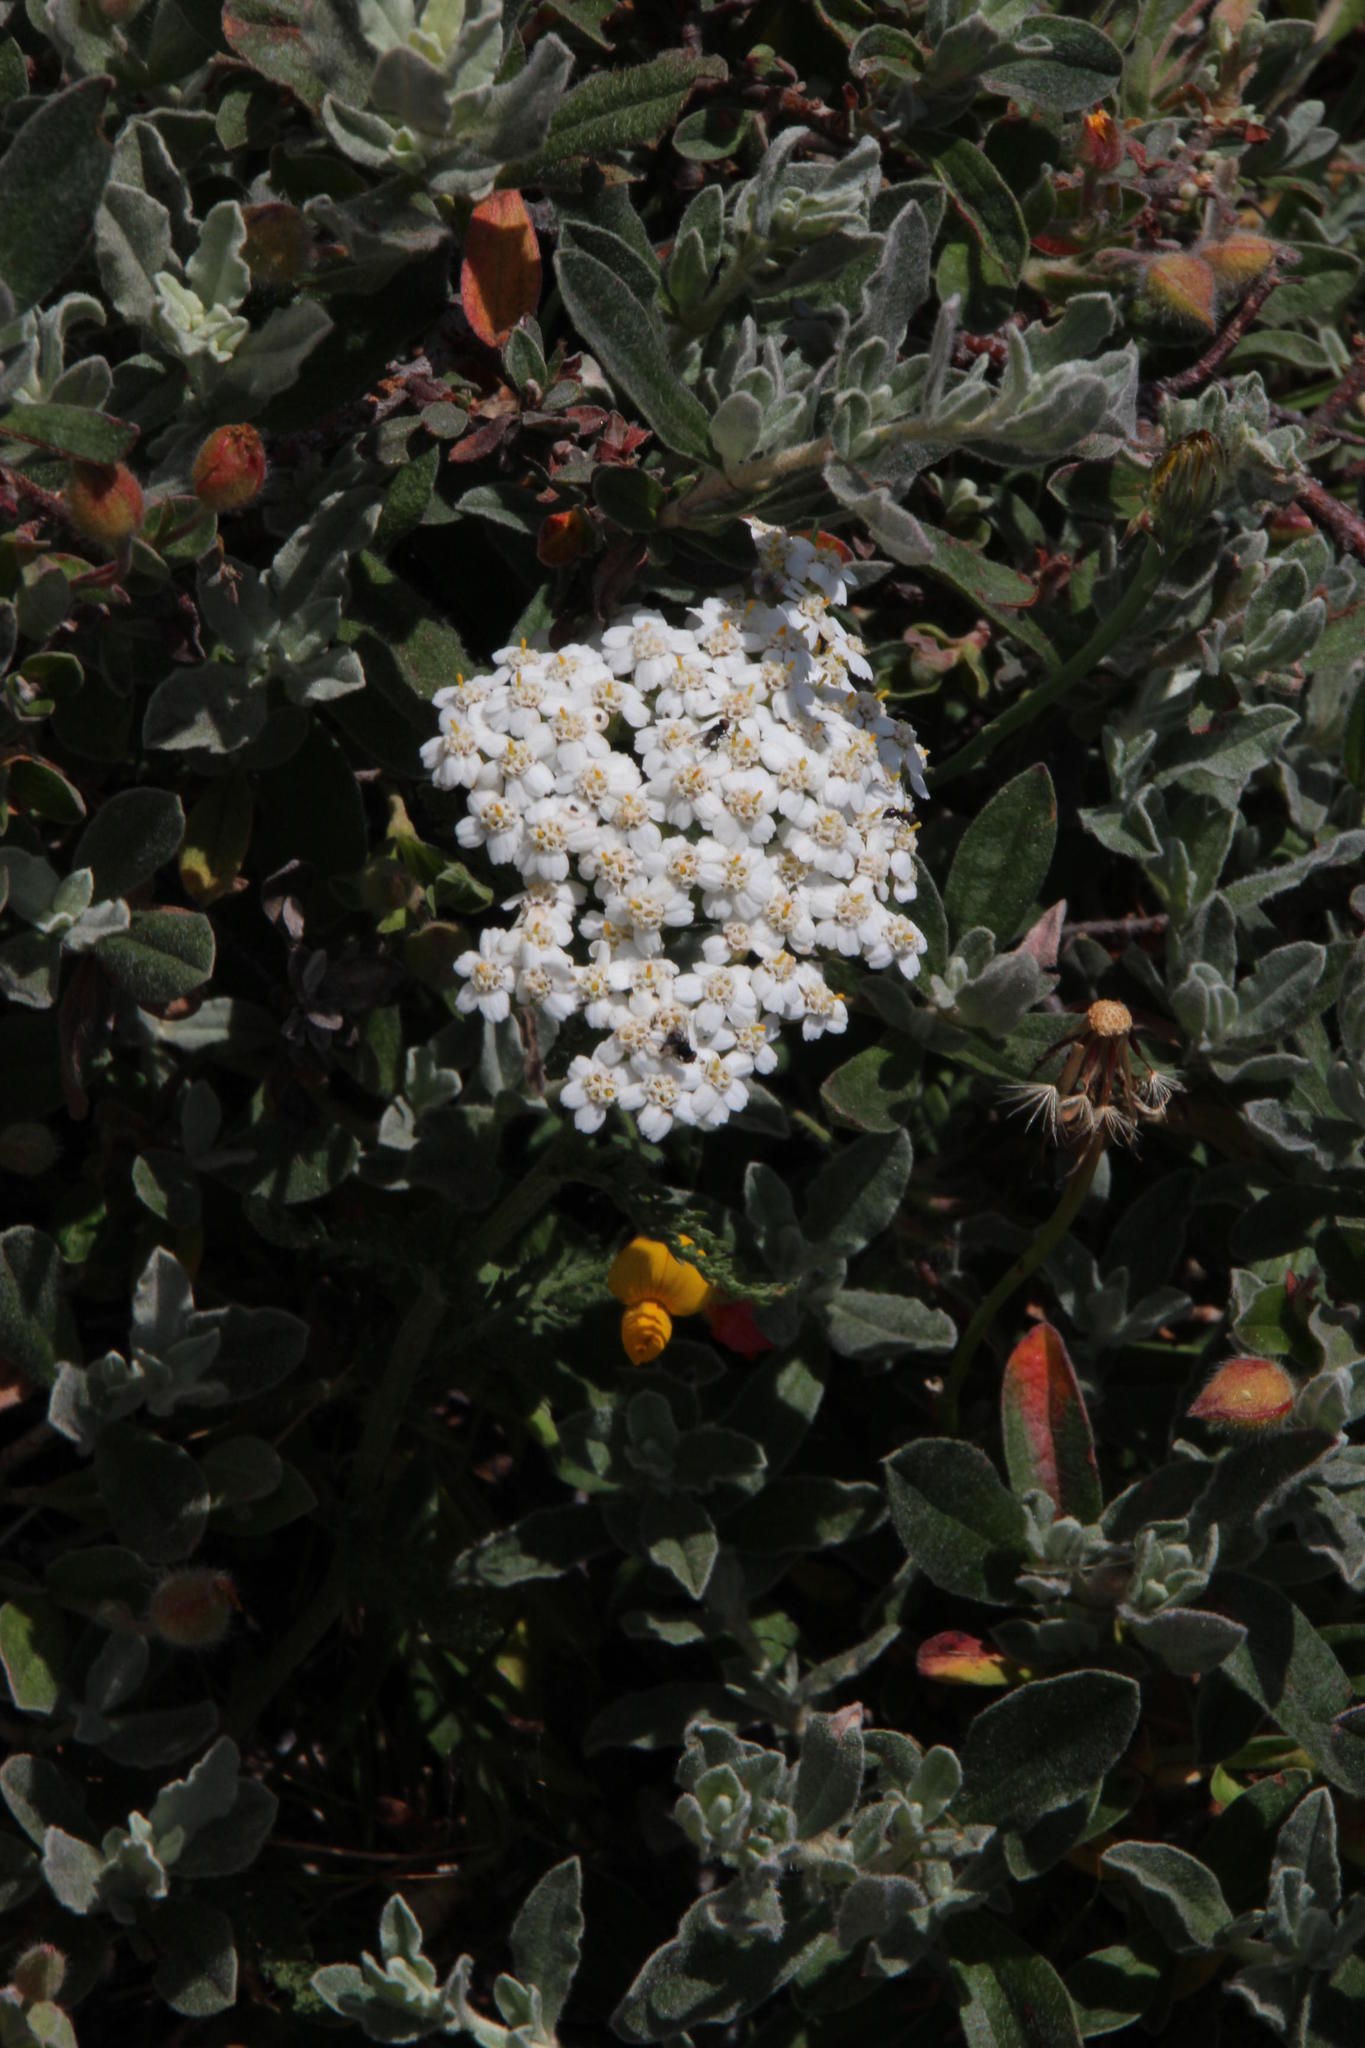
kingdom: Plantae
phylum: Tracheophyta
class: Magnoliopsida
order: Asterales
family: Asteraceae
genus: Achillea
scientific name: Achillea millefolium
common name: Yarrow
